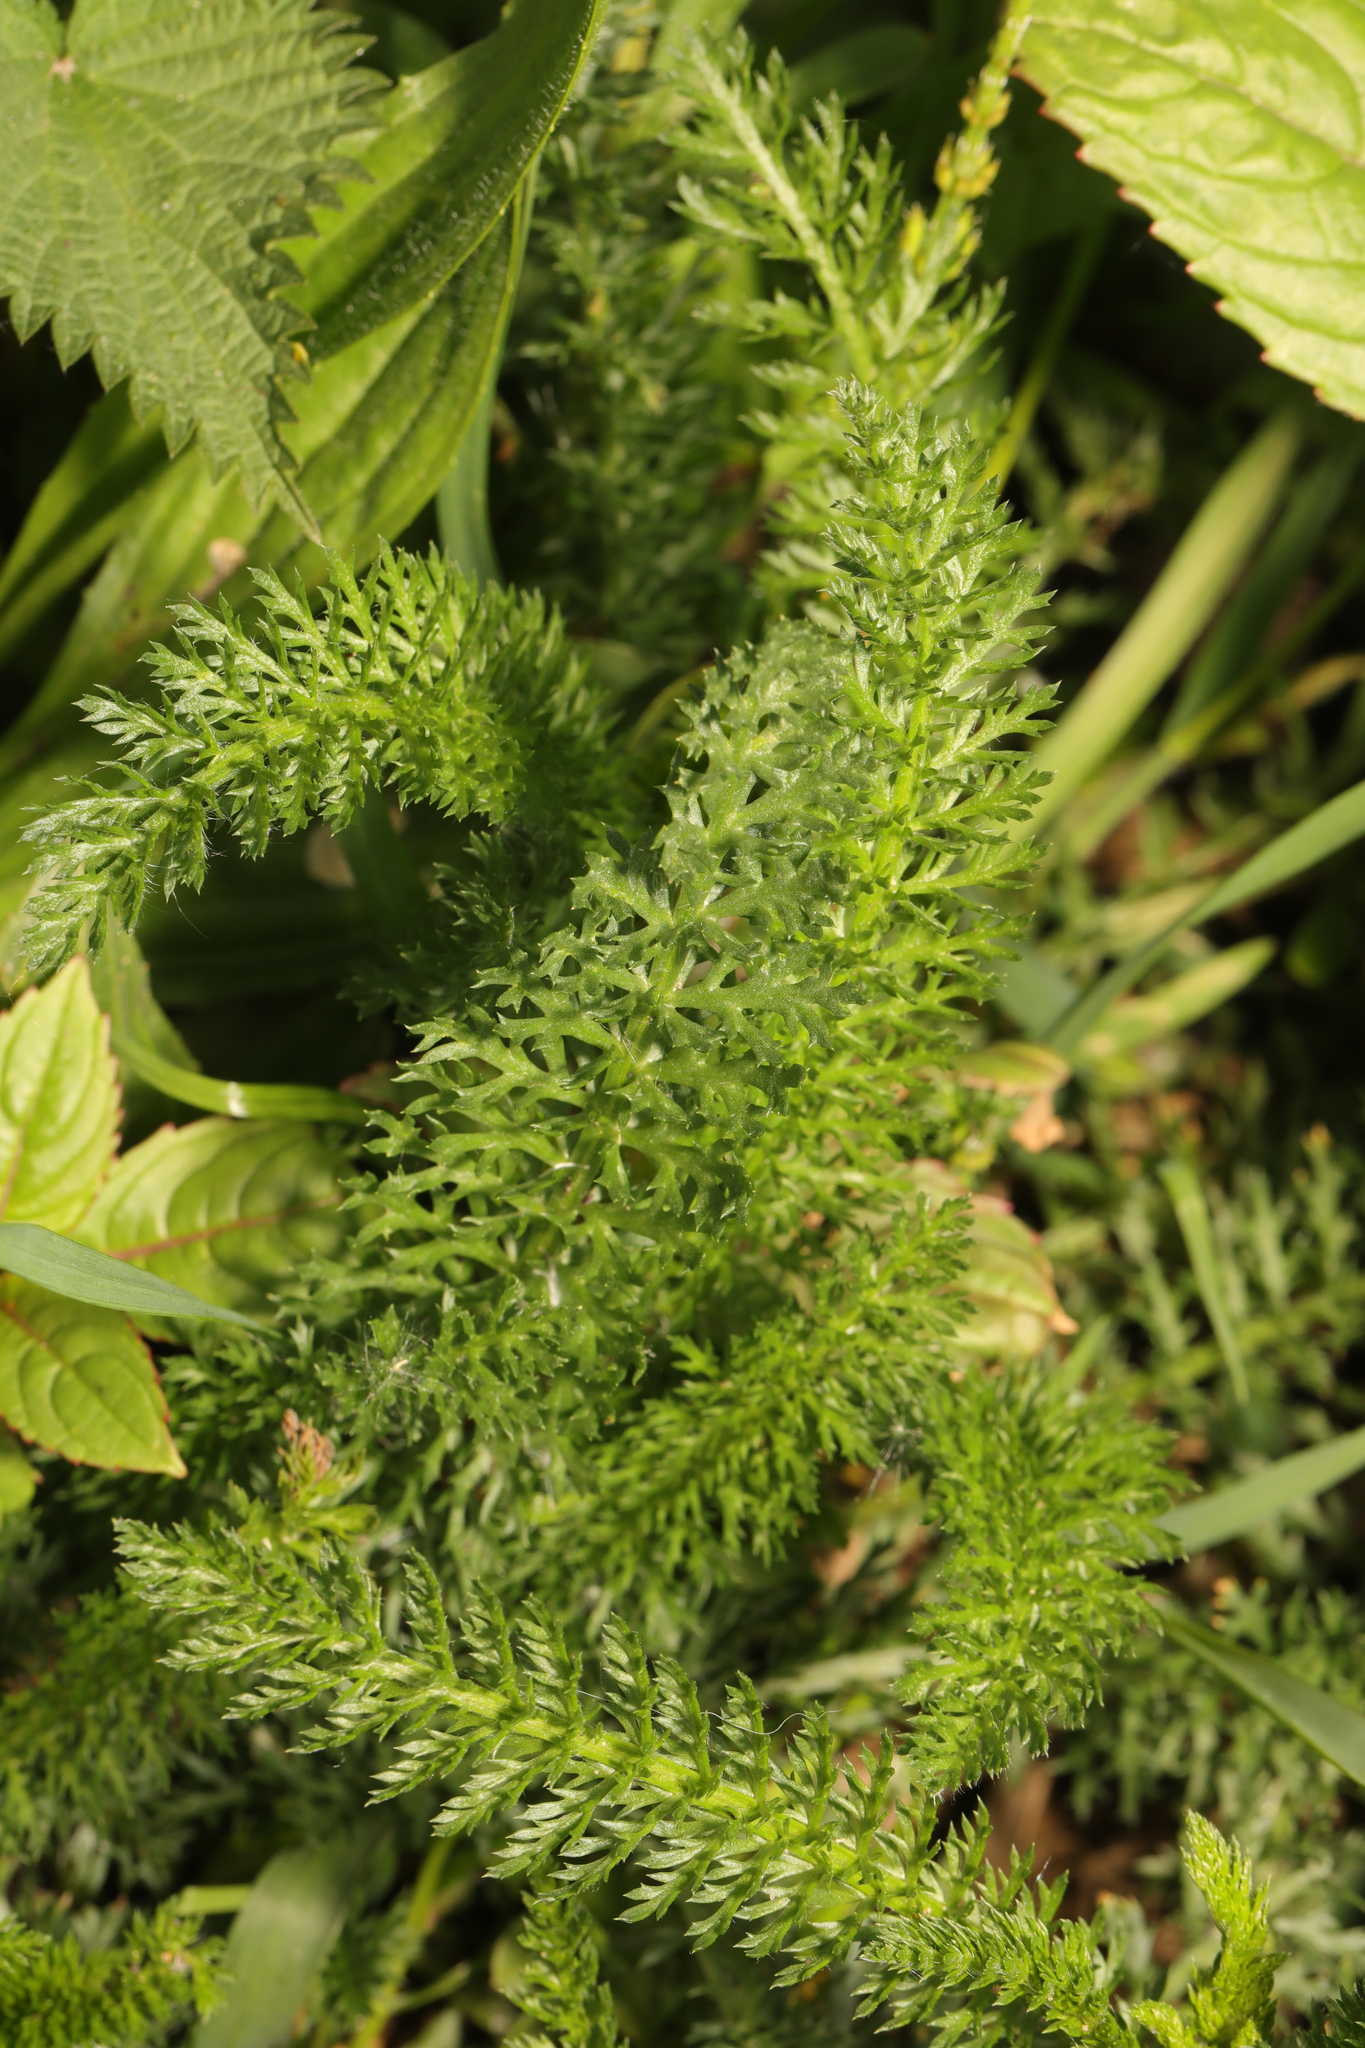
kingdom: Plantae
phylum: Tracheophyta
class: Magnoliopsida
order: Asterales
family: Asteraceae
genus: Achillea
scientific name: Achillea millefolium
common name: Yarrow
